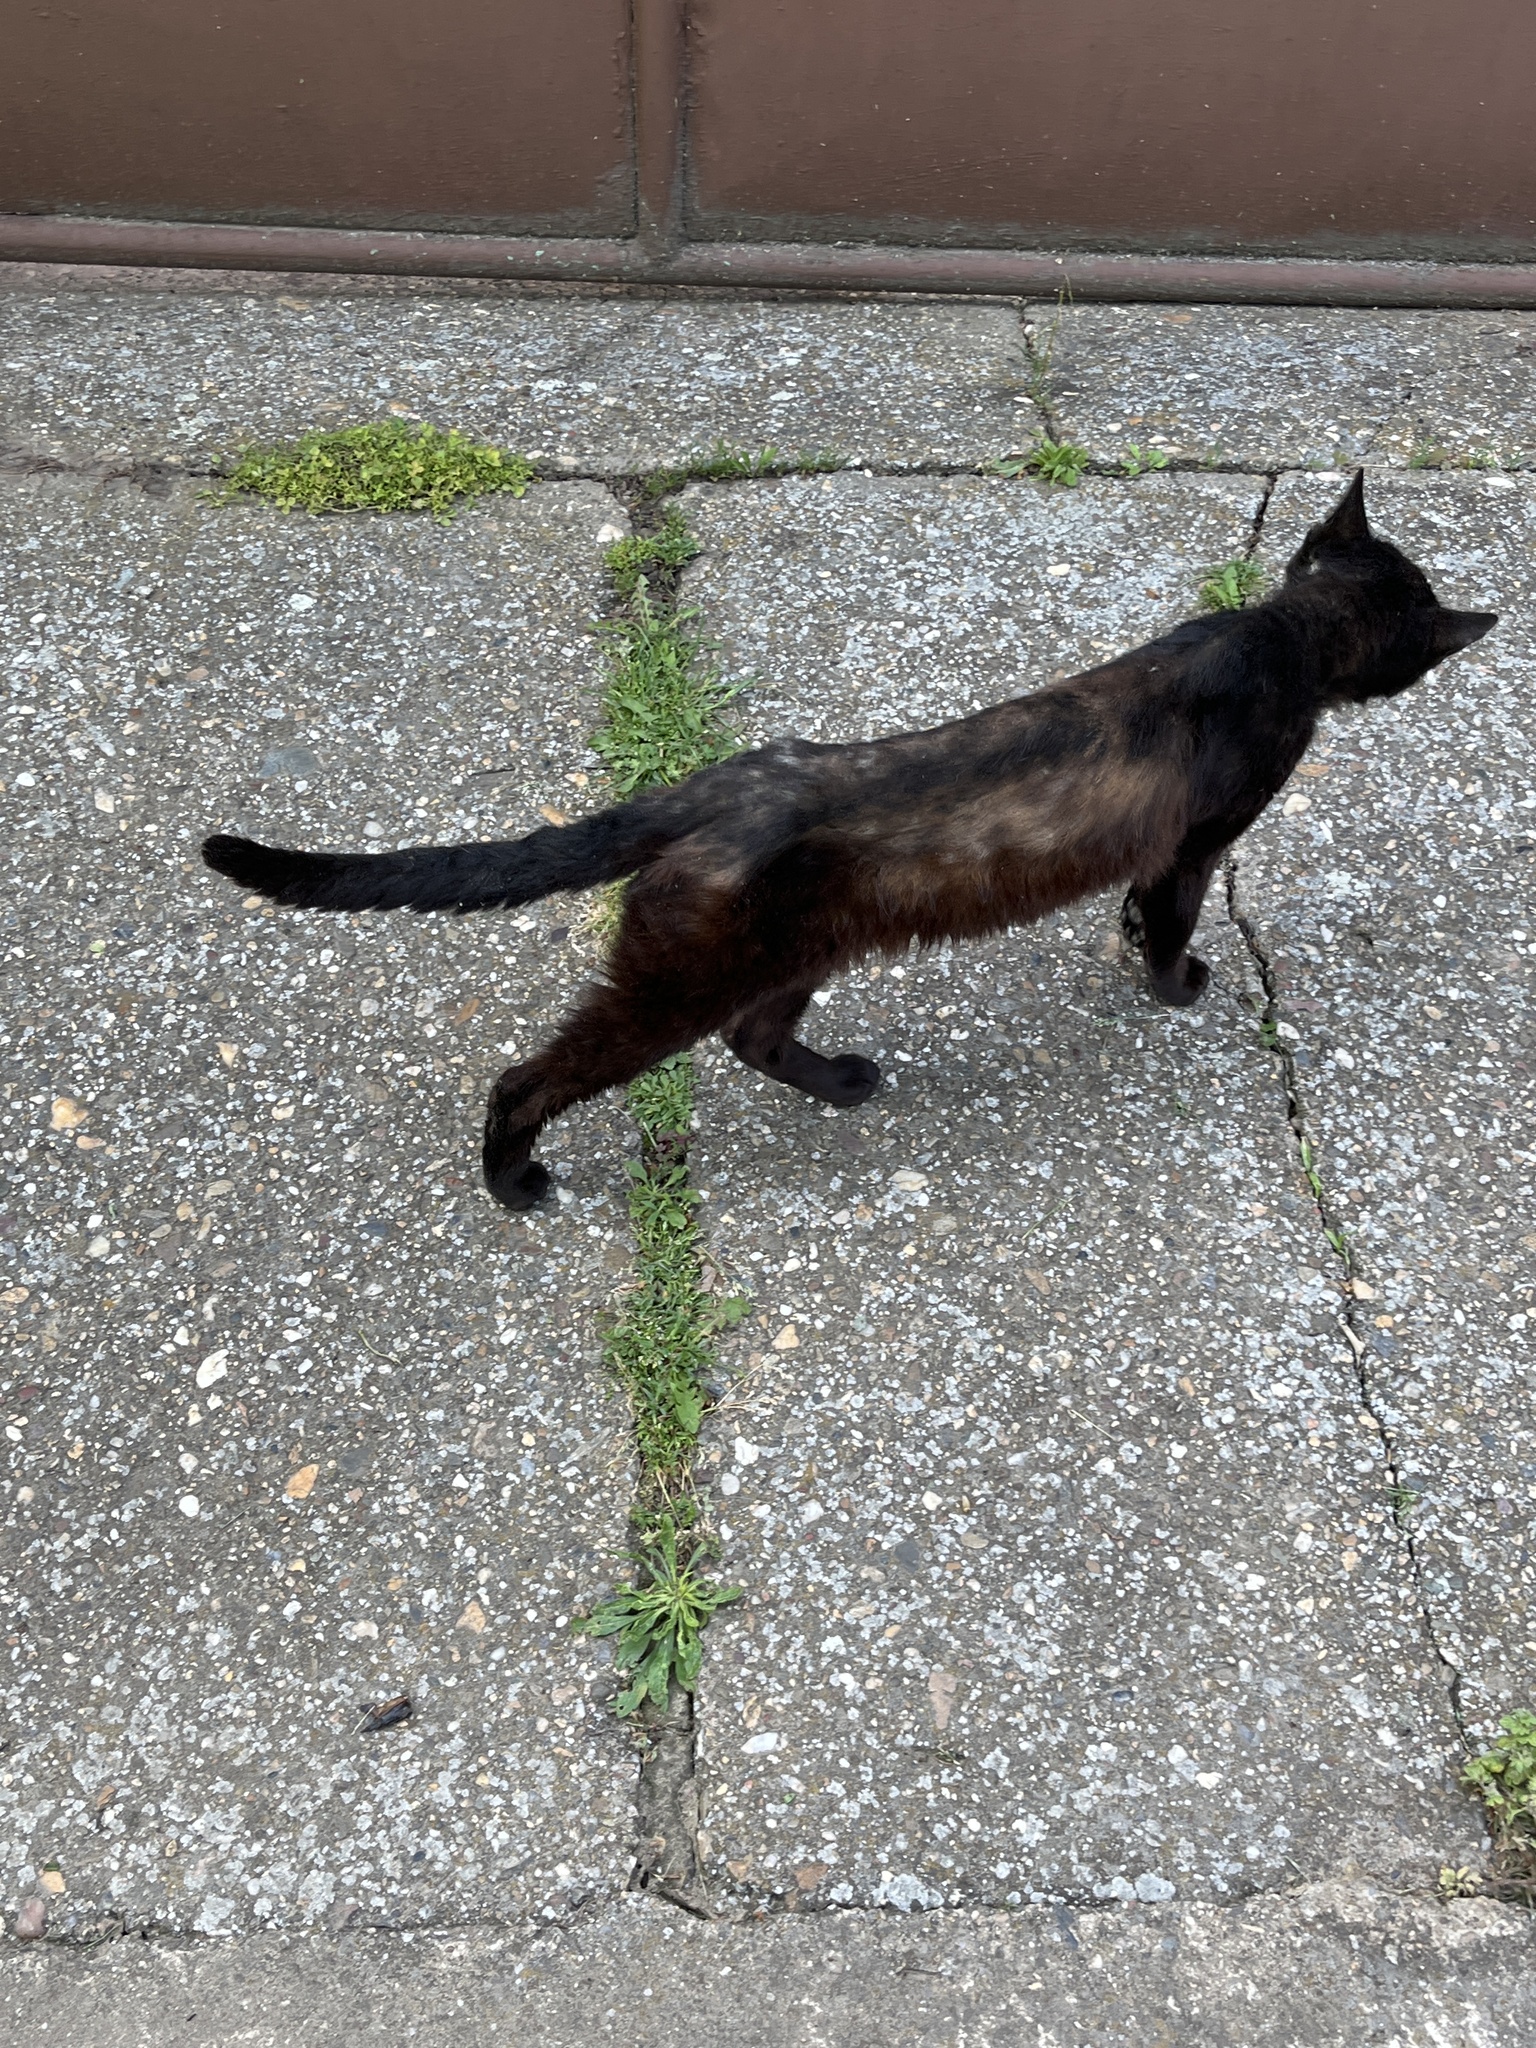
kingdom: Animalia
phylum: Chordata
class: Mammalia
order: Carnivora
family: Felidae
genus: Felis
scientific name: Felis catus
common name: Domestic cat
